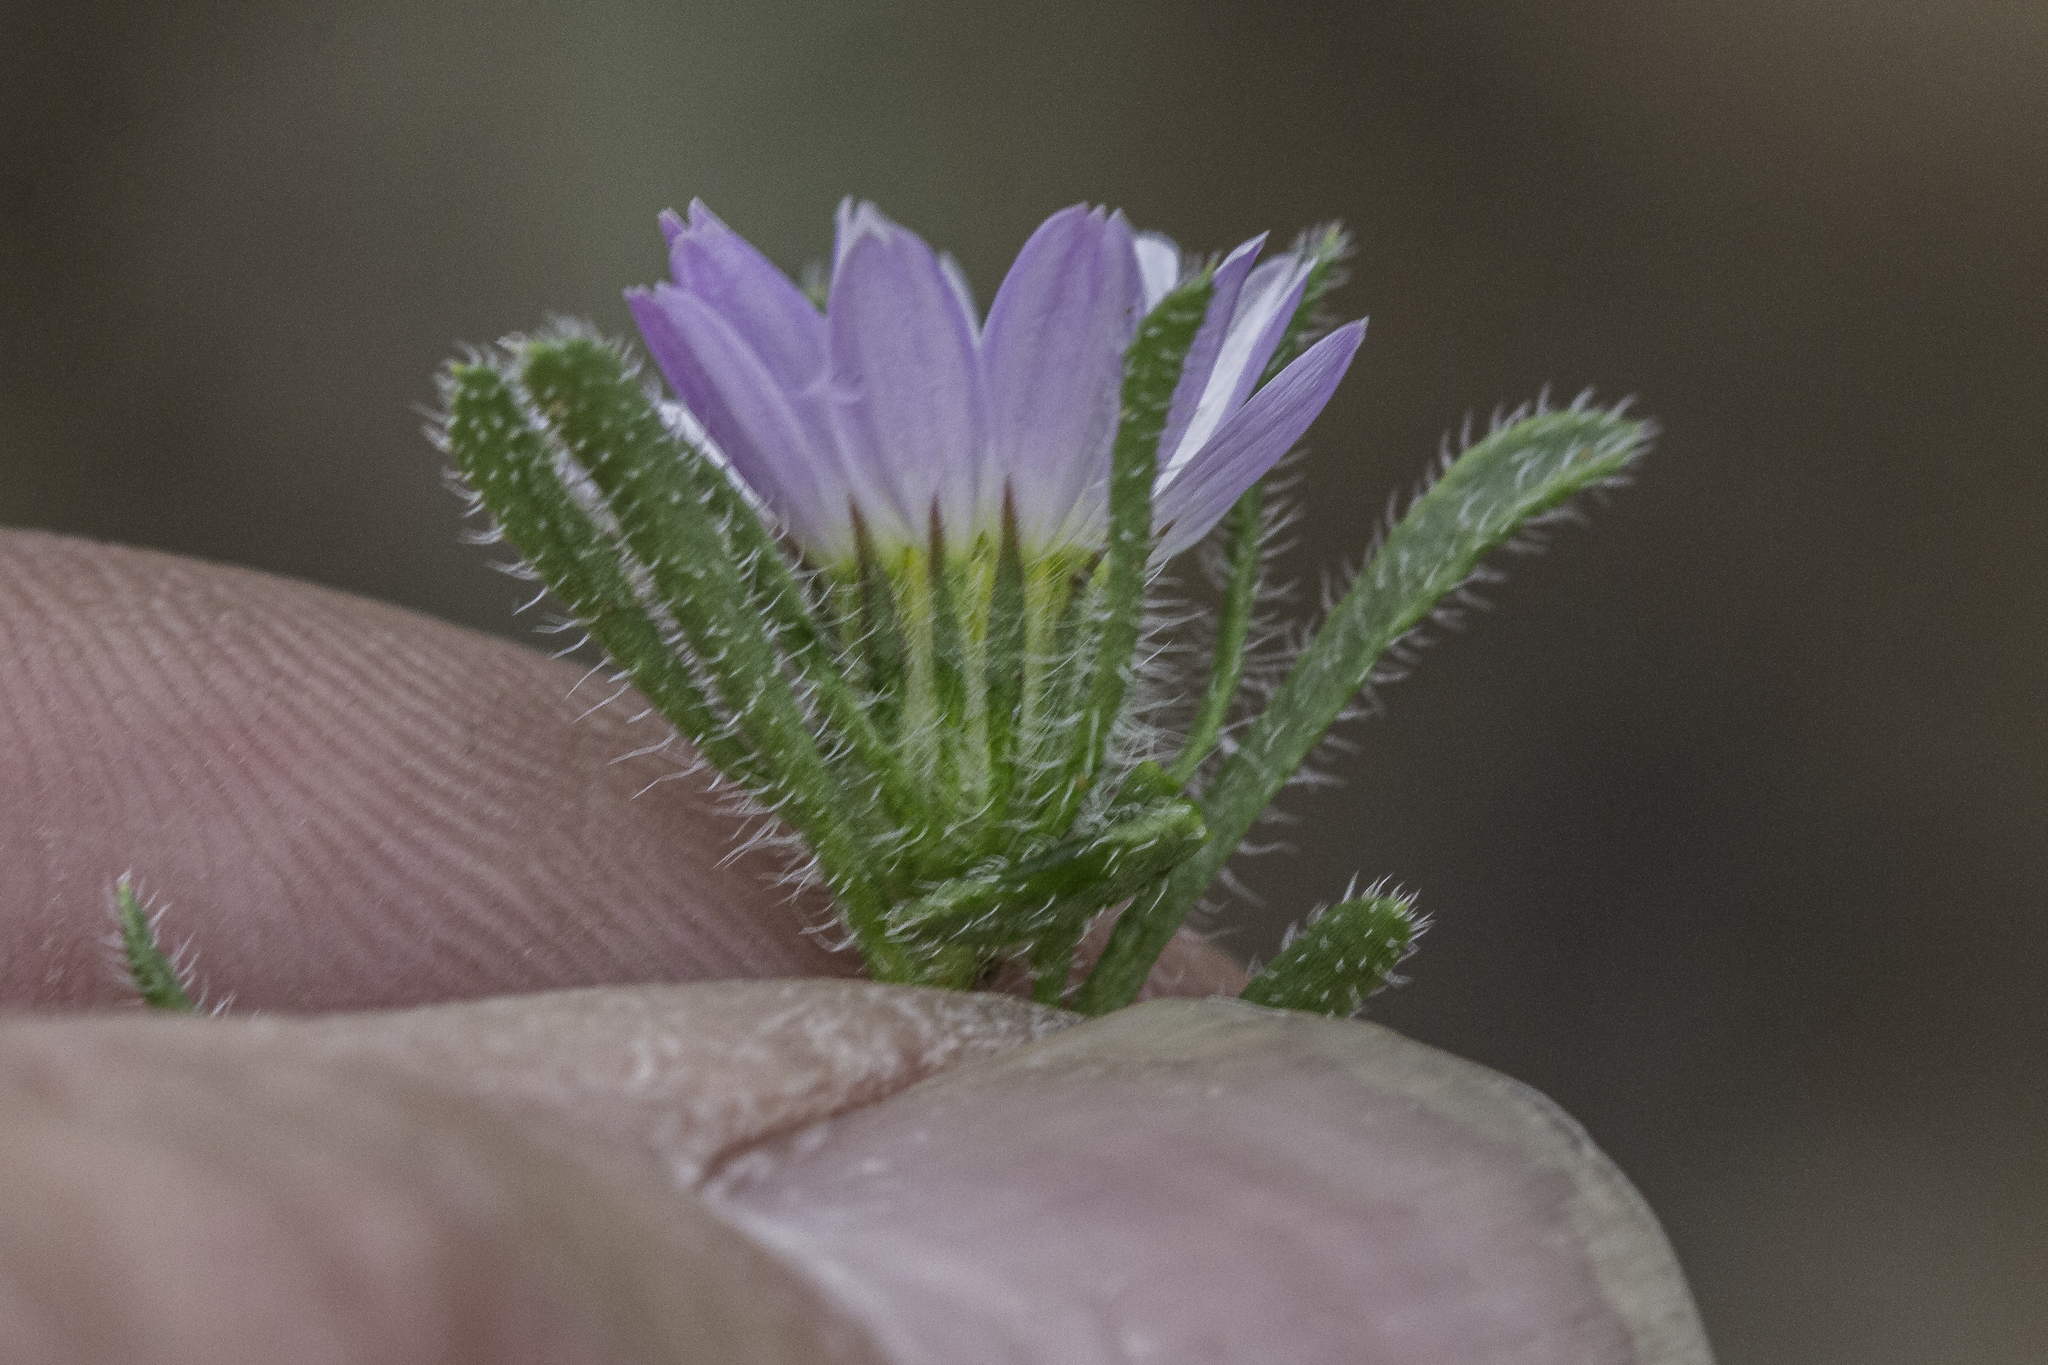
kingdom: Plantae
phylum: Tracheophyta
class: Magnoliopsida
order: Asterales
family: Asteraceae
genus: Monoptilon
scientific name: Monoptilon bellioides
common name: Bristly desertstar
